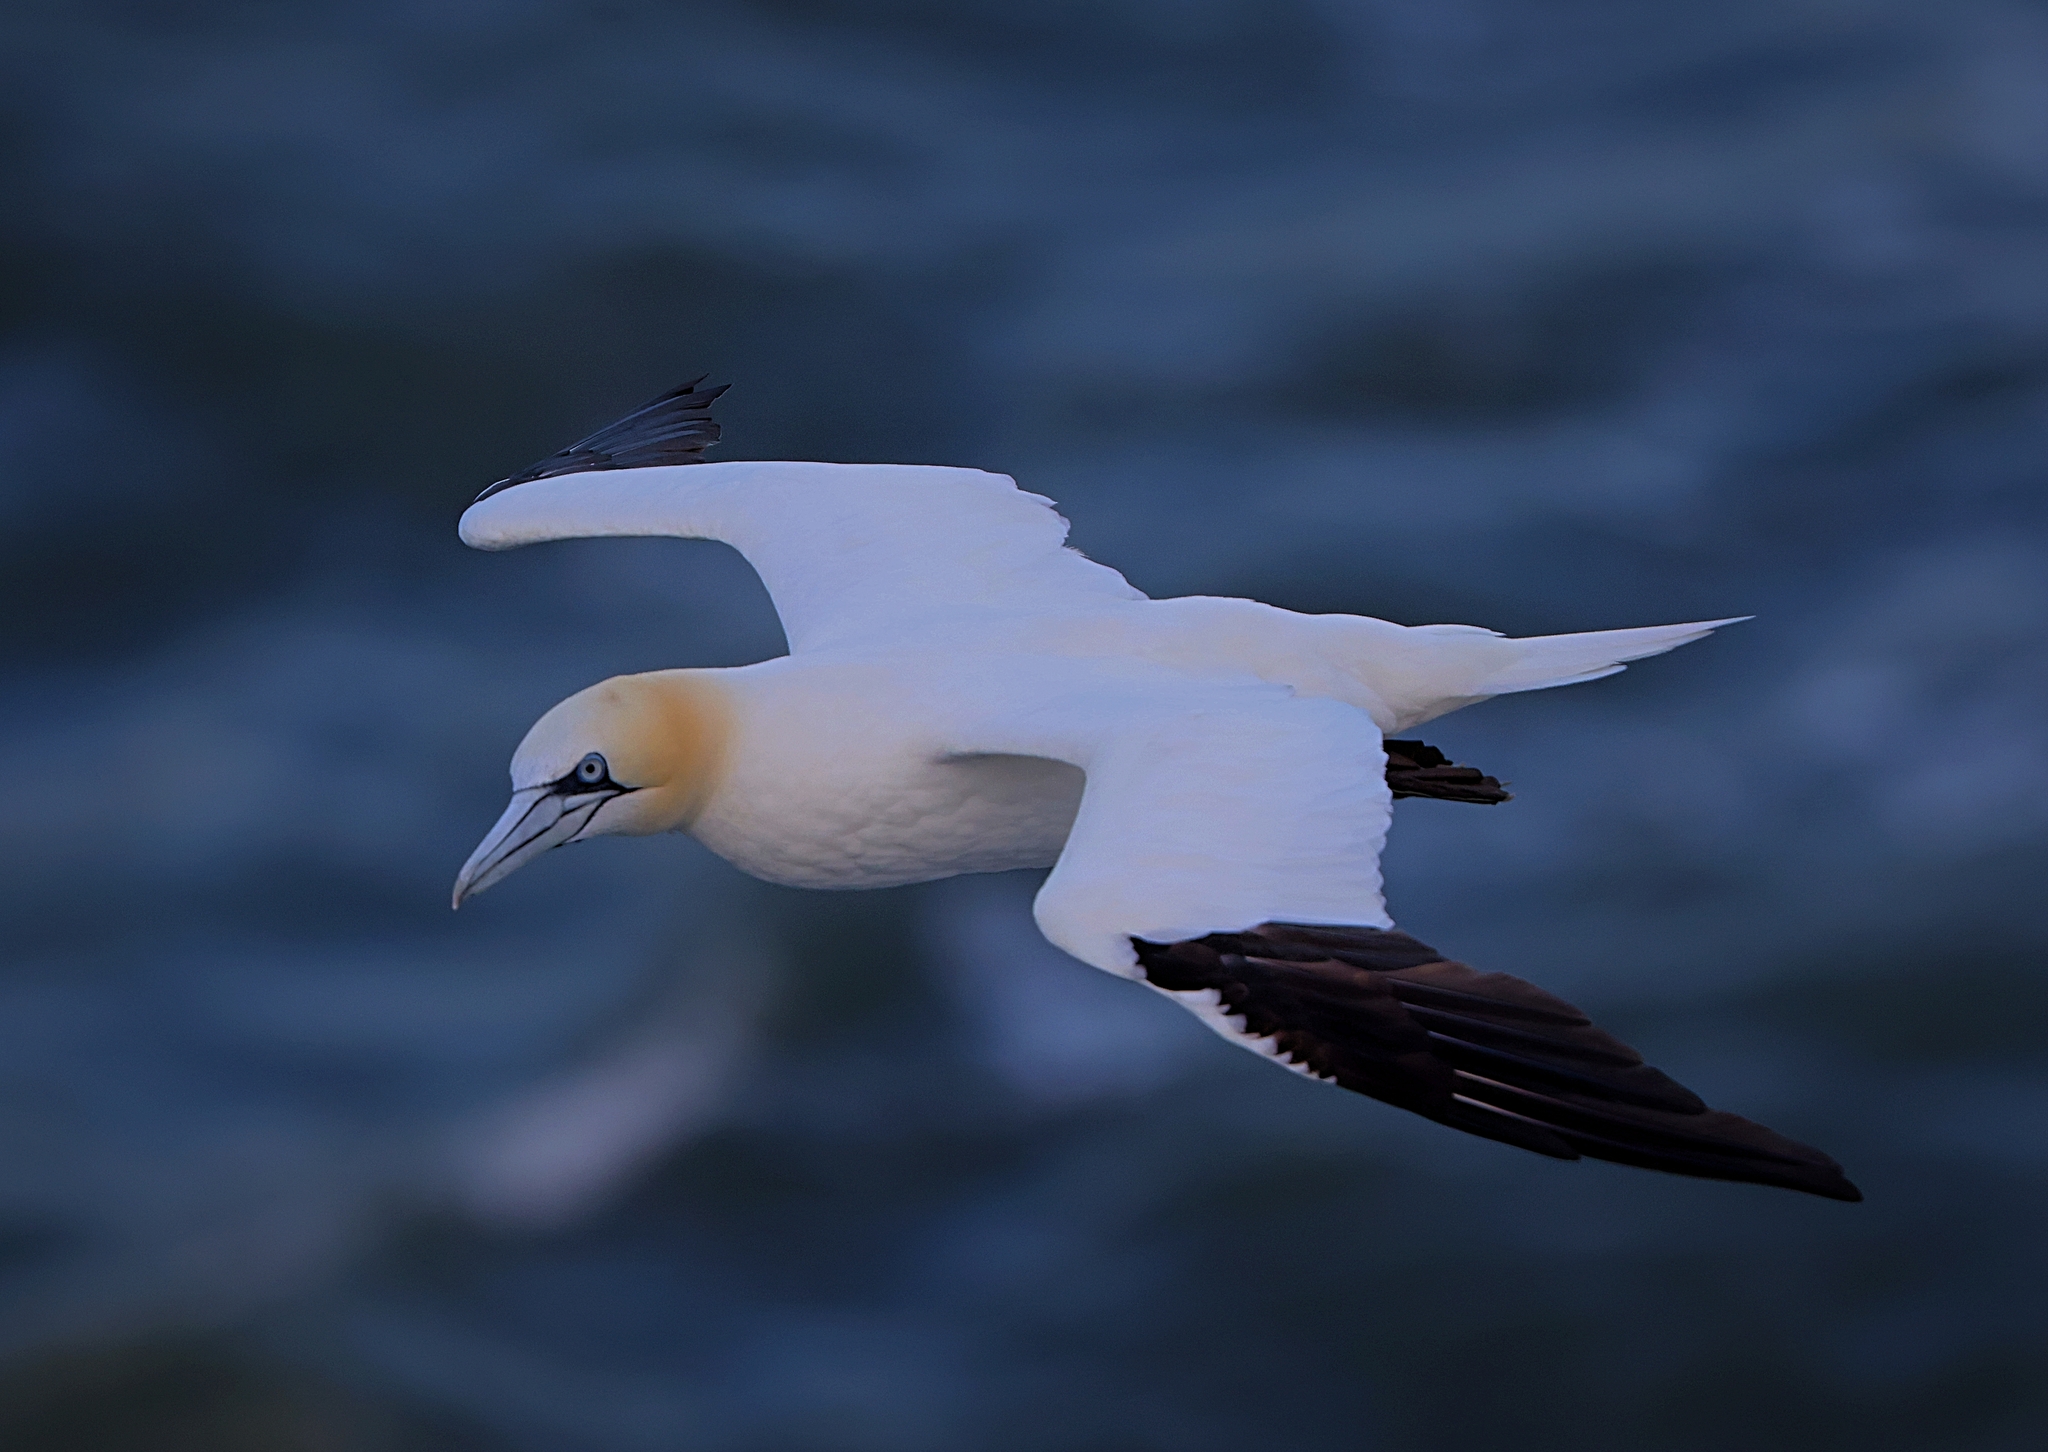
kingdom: Animalia
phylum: Chordata
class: Aves
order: Suliformes
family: Sulidae
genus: Morus
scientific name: Morus bassanus
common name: Northern gannet
